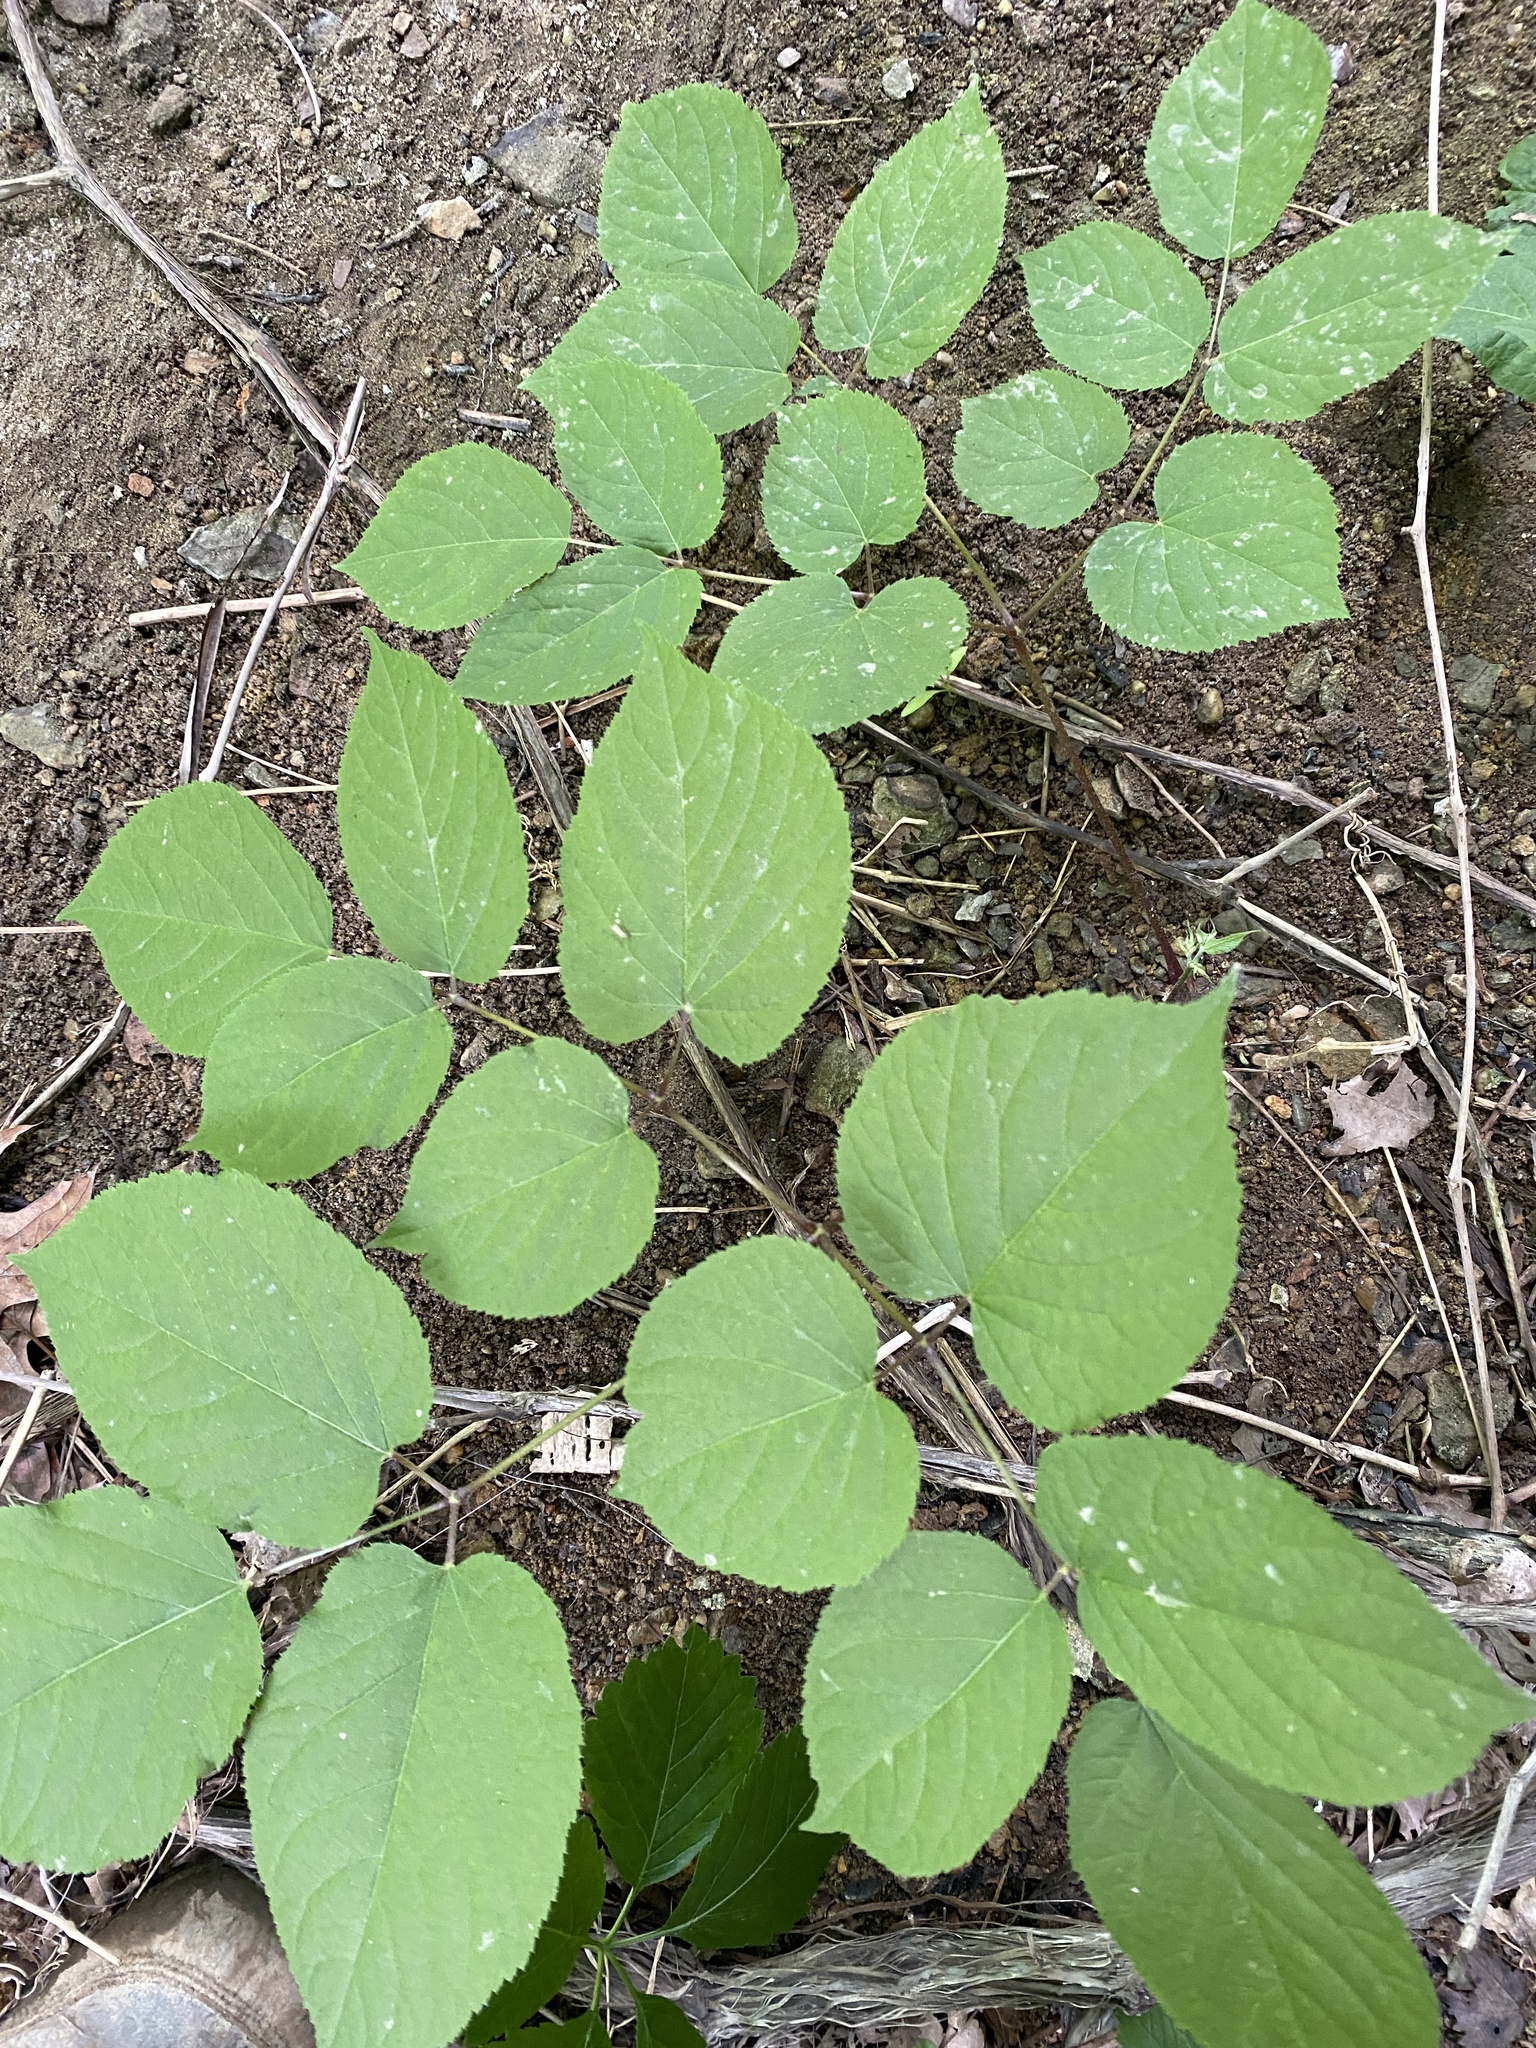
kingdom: Plantae
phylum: Tracheophyta
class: Magnoliopsida
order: Apiales
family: Araliaceae
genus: Aralia
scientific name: Aralia racemosa
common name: American-spikenard
